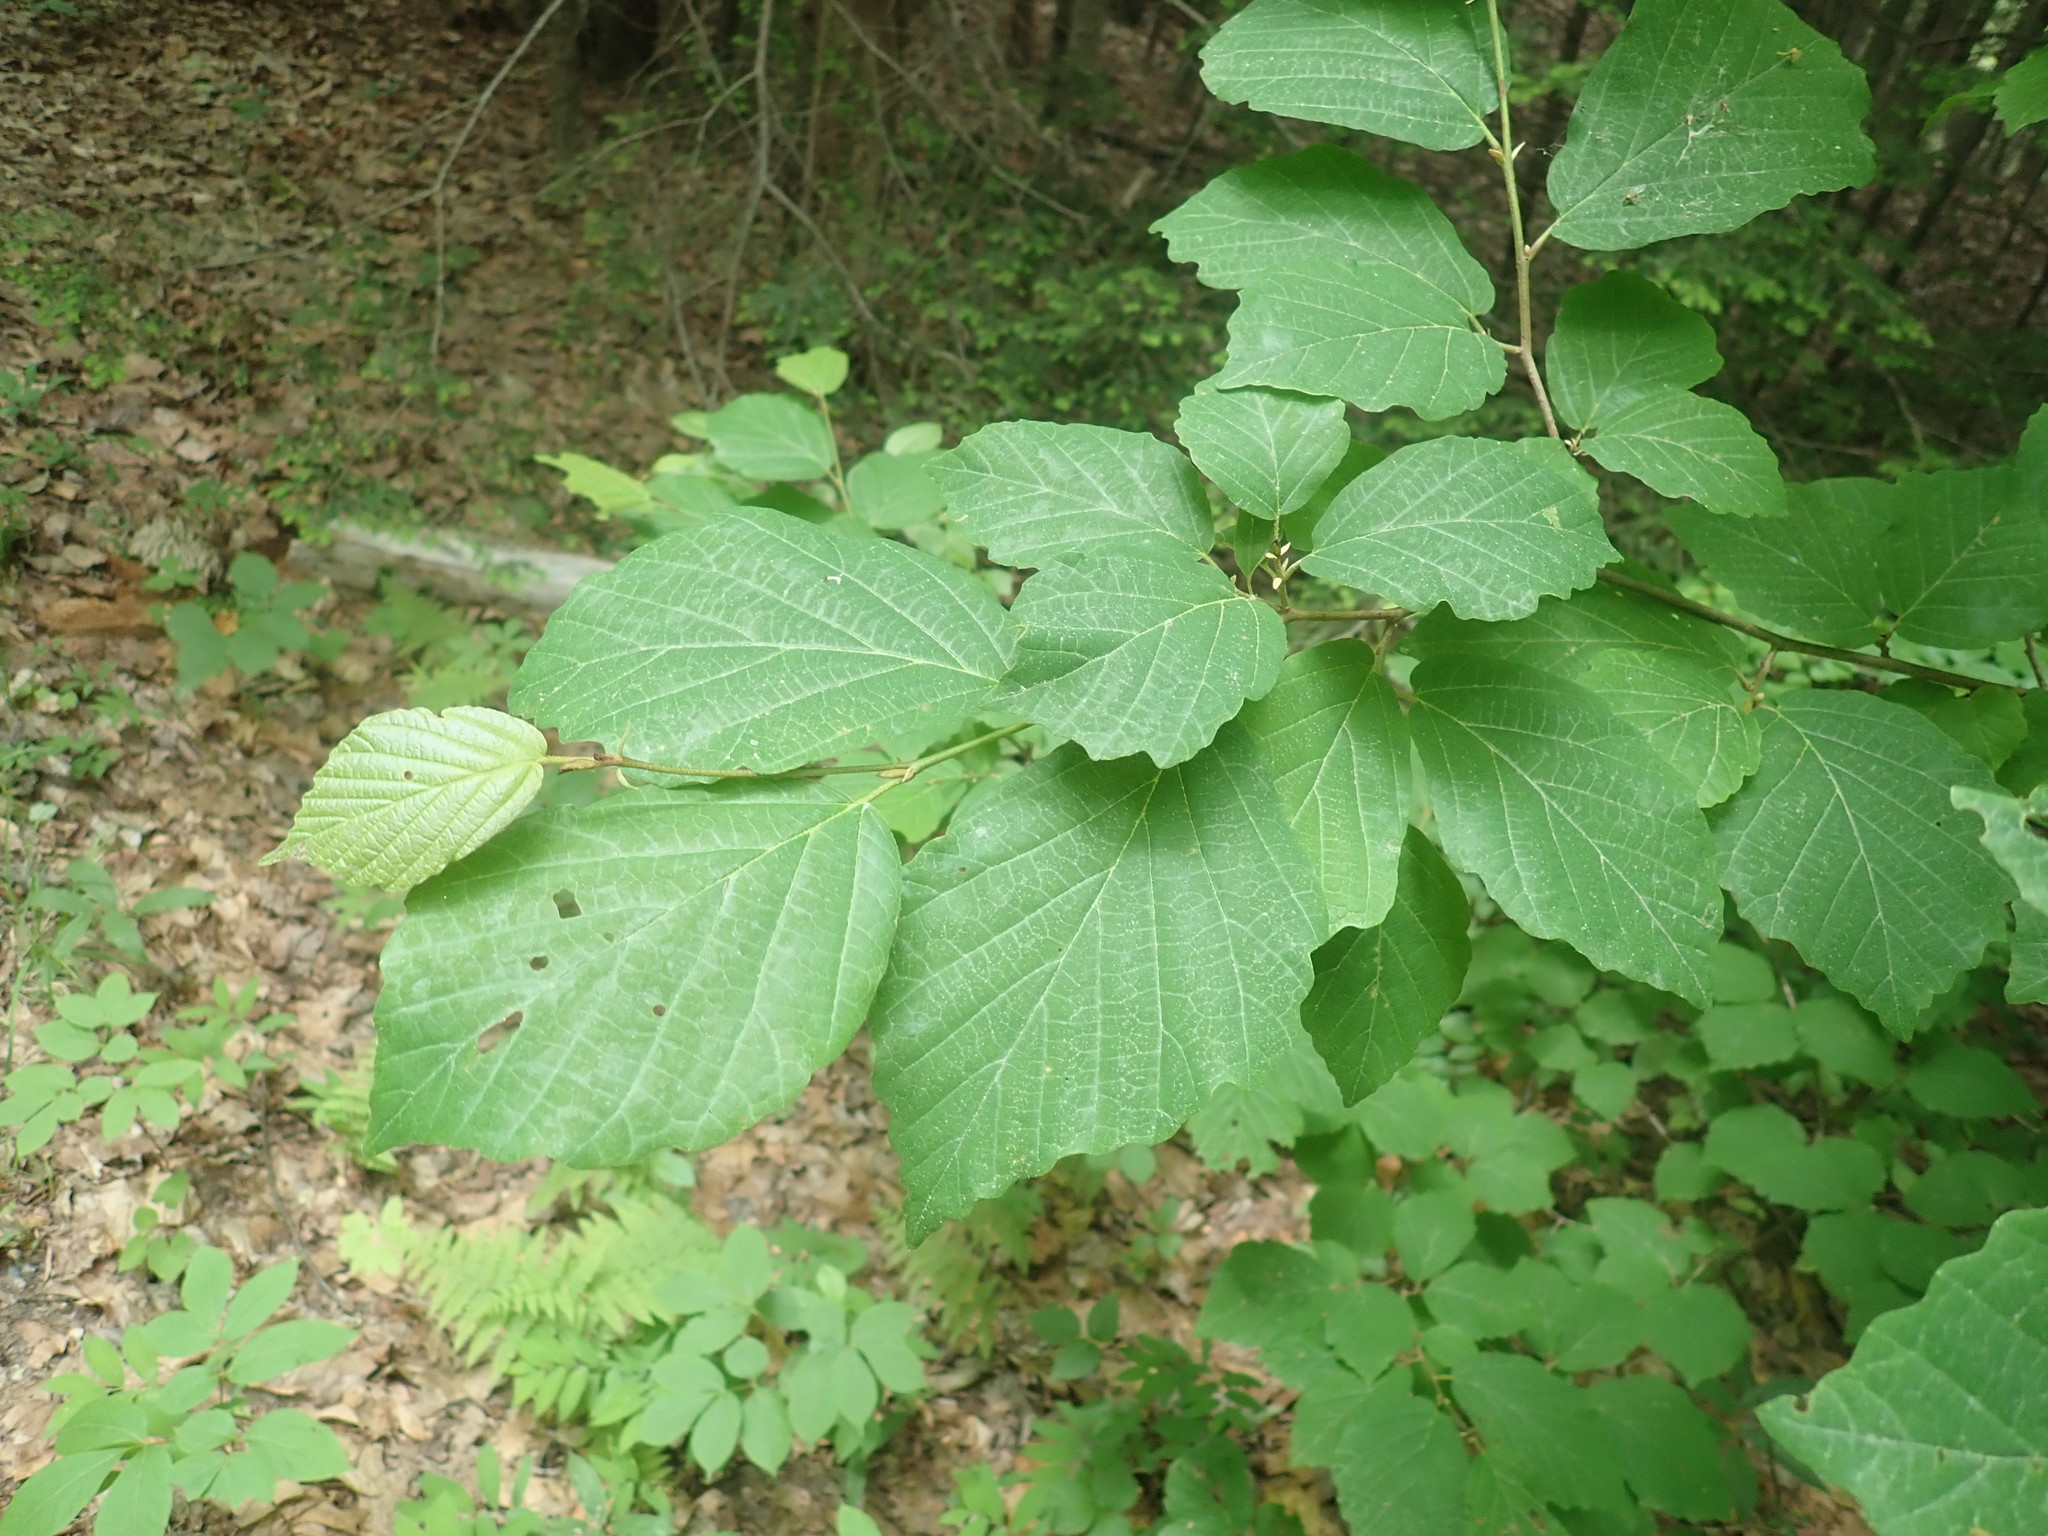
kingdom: Plantae
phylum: Tracheophyta
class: Magnoliopsida
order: Saxifragales
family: Hamamelidaceae
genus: Hamamelis
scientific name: Hamamelis virginiana
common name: Witch-hazel
